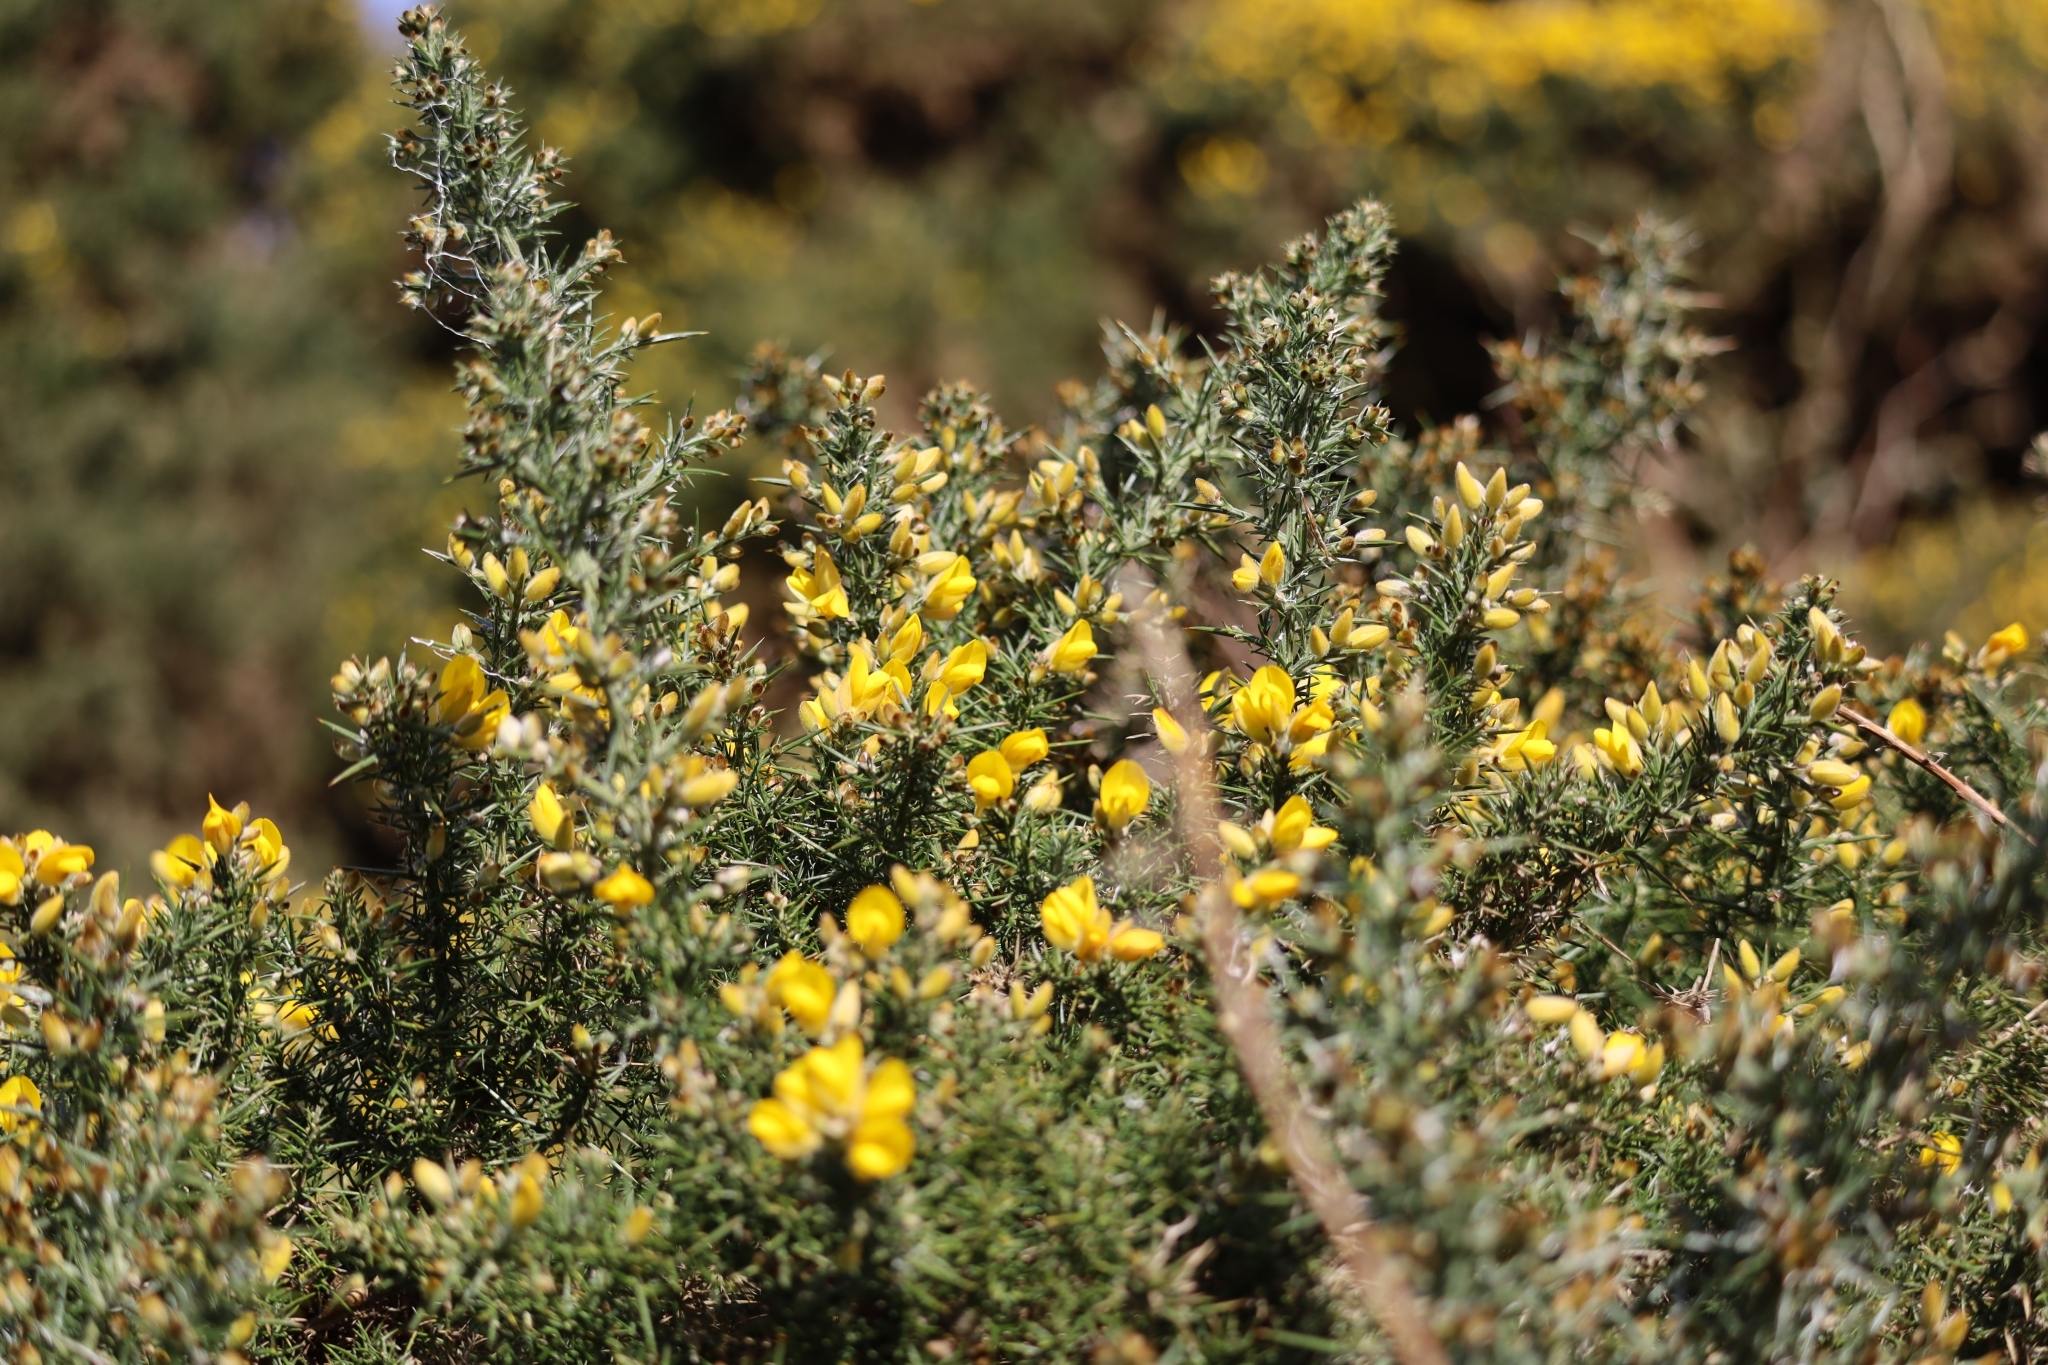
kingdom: Plantae
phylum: Tracheophyta
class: Magnoliopsida
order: Fabales
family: Fabaceae
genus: Ulex
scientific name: Ulex europaeus
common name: Common gorse
